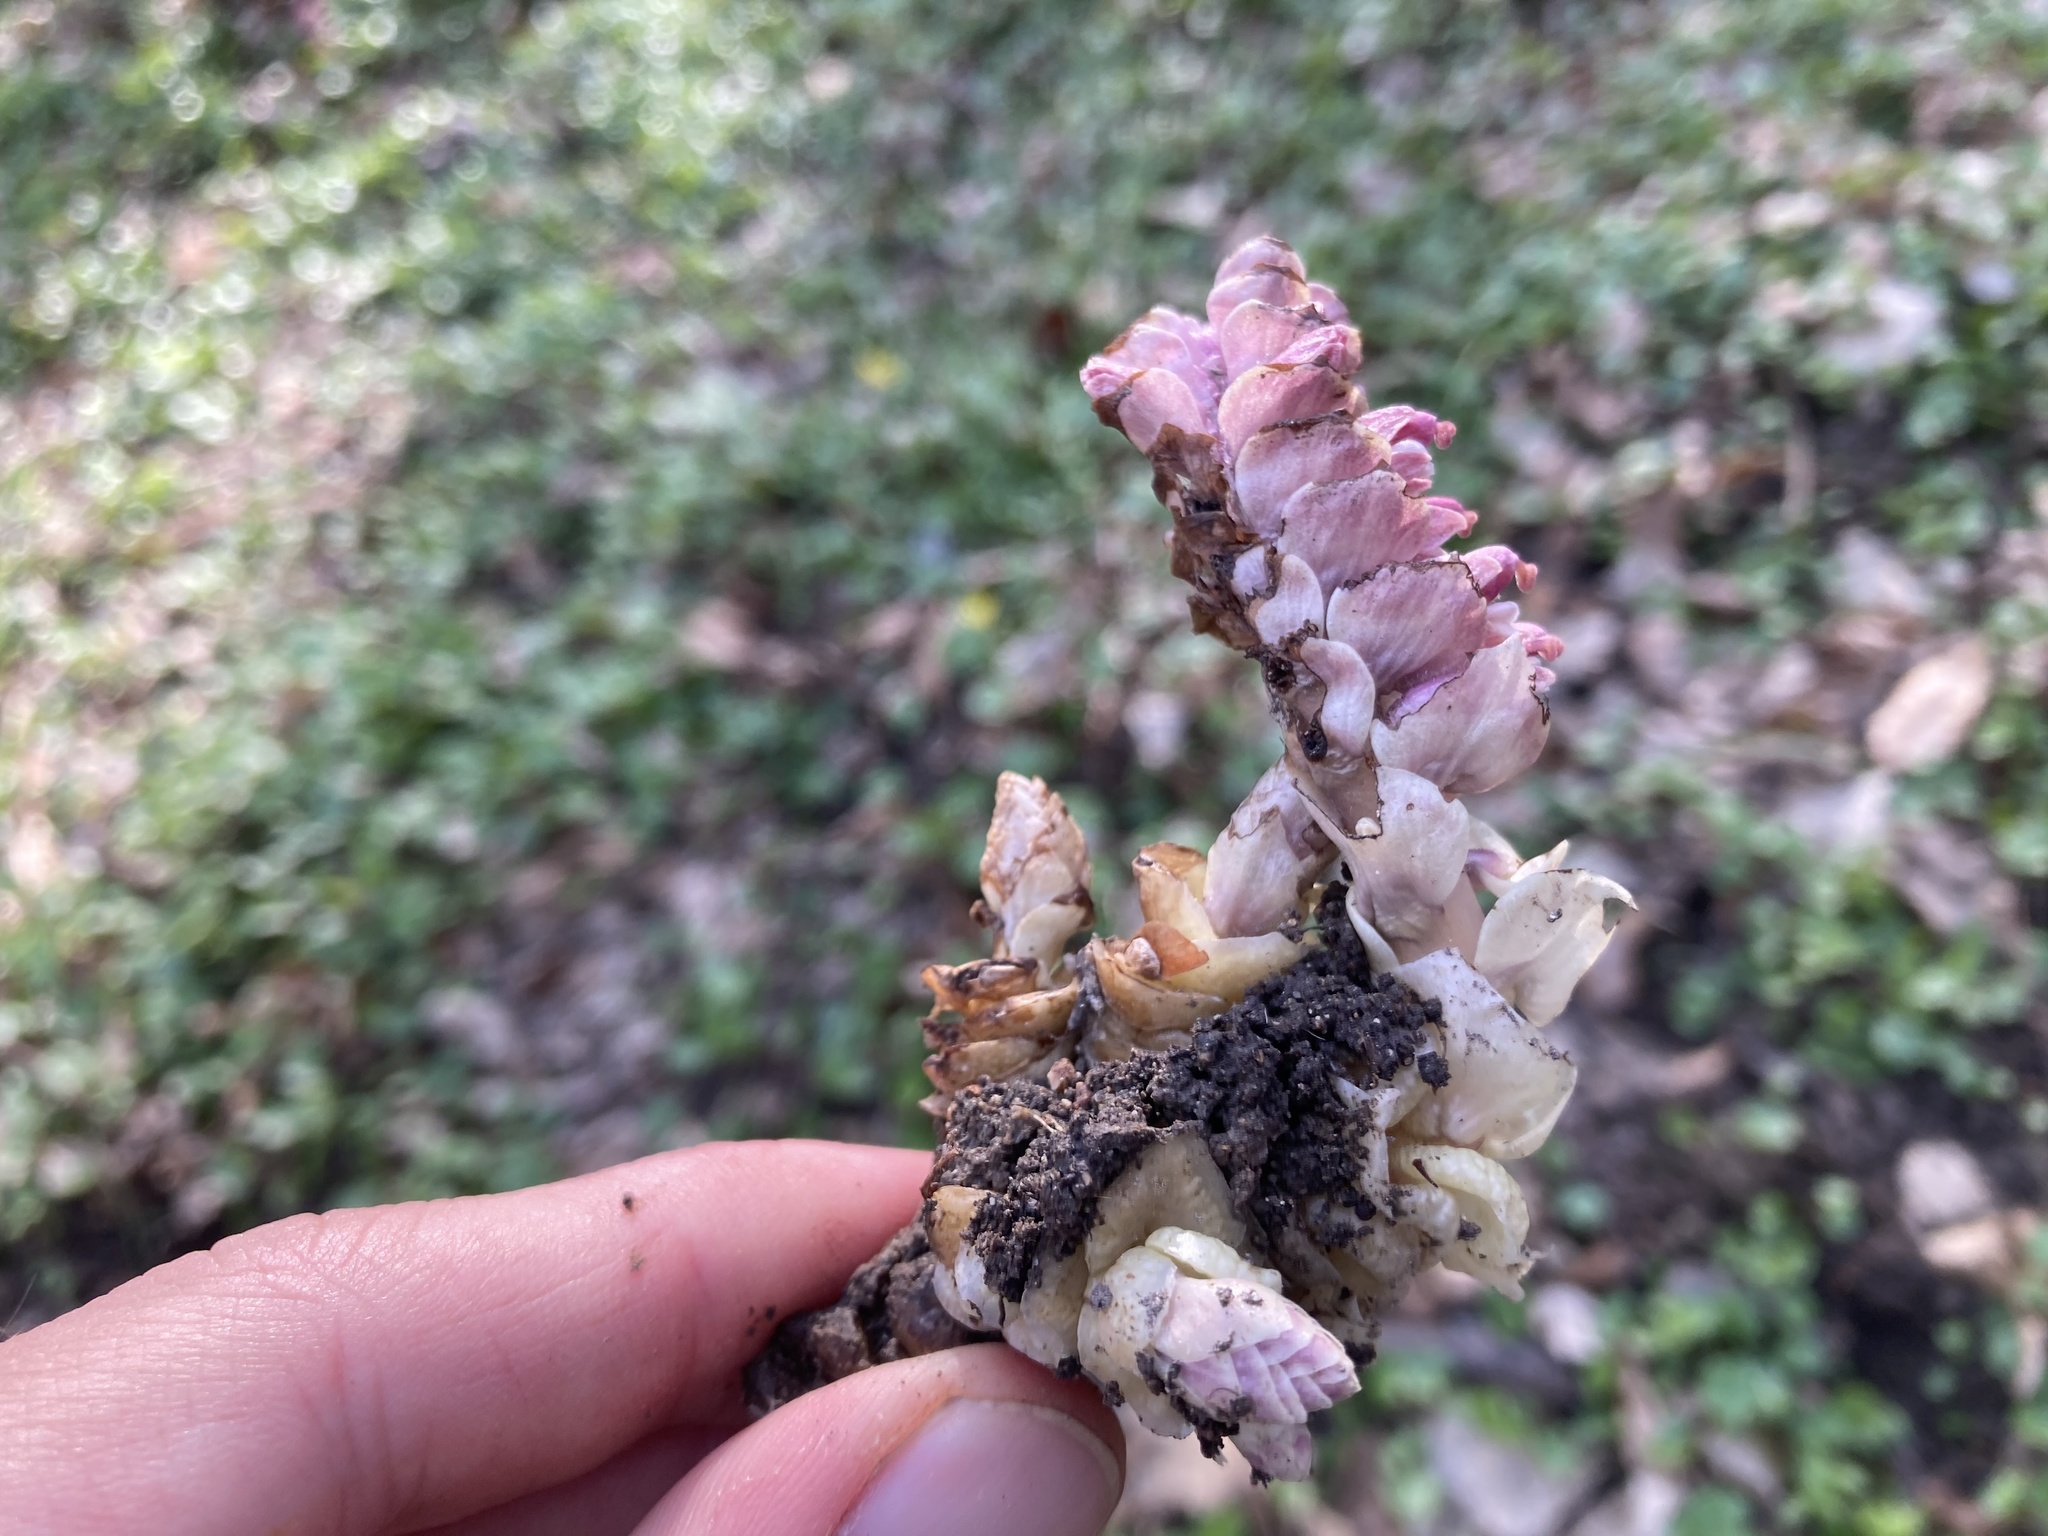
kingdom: Plantae
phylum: Tracheophyta
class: Magnoliopsida
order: Lamiales
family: Orobanchaceae
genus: Lathraea
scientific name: Lathraea squamaria
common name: Toothwort
